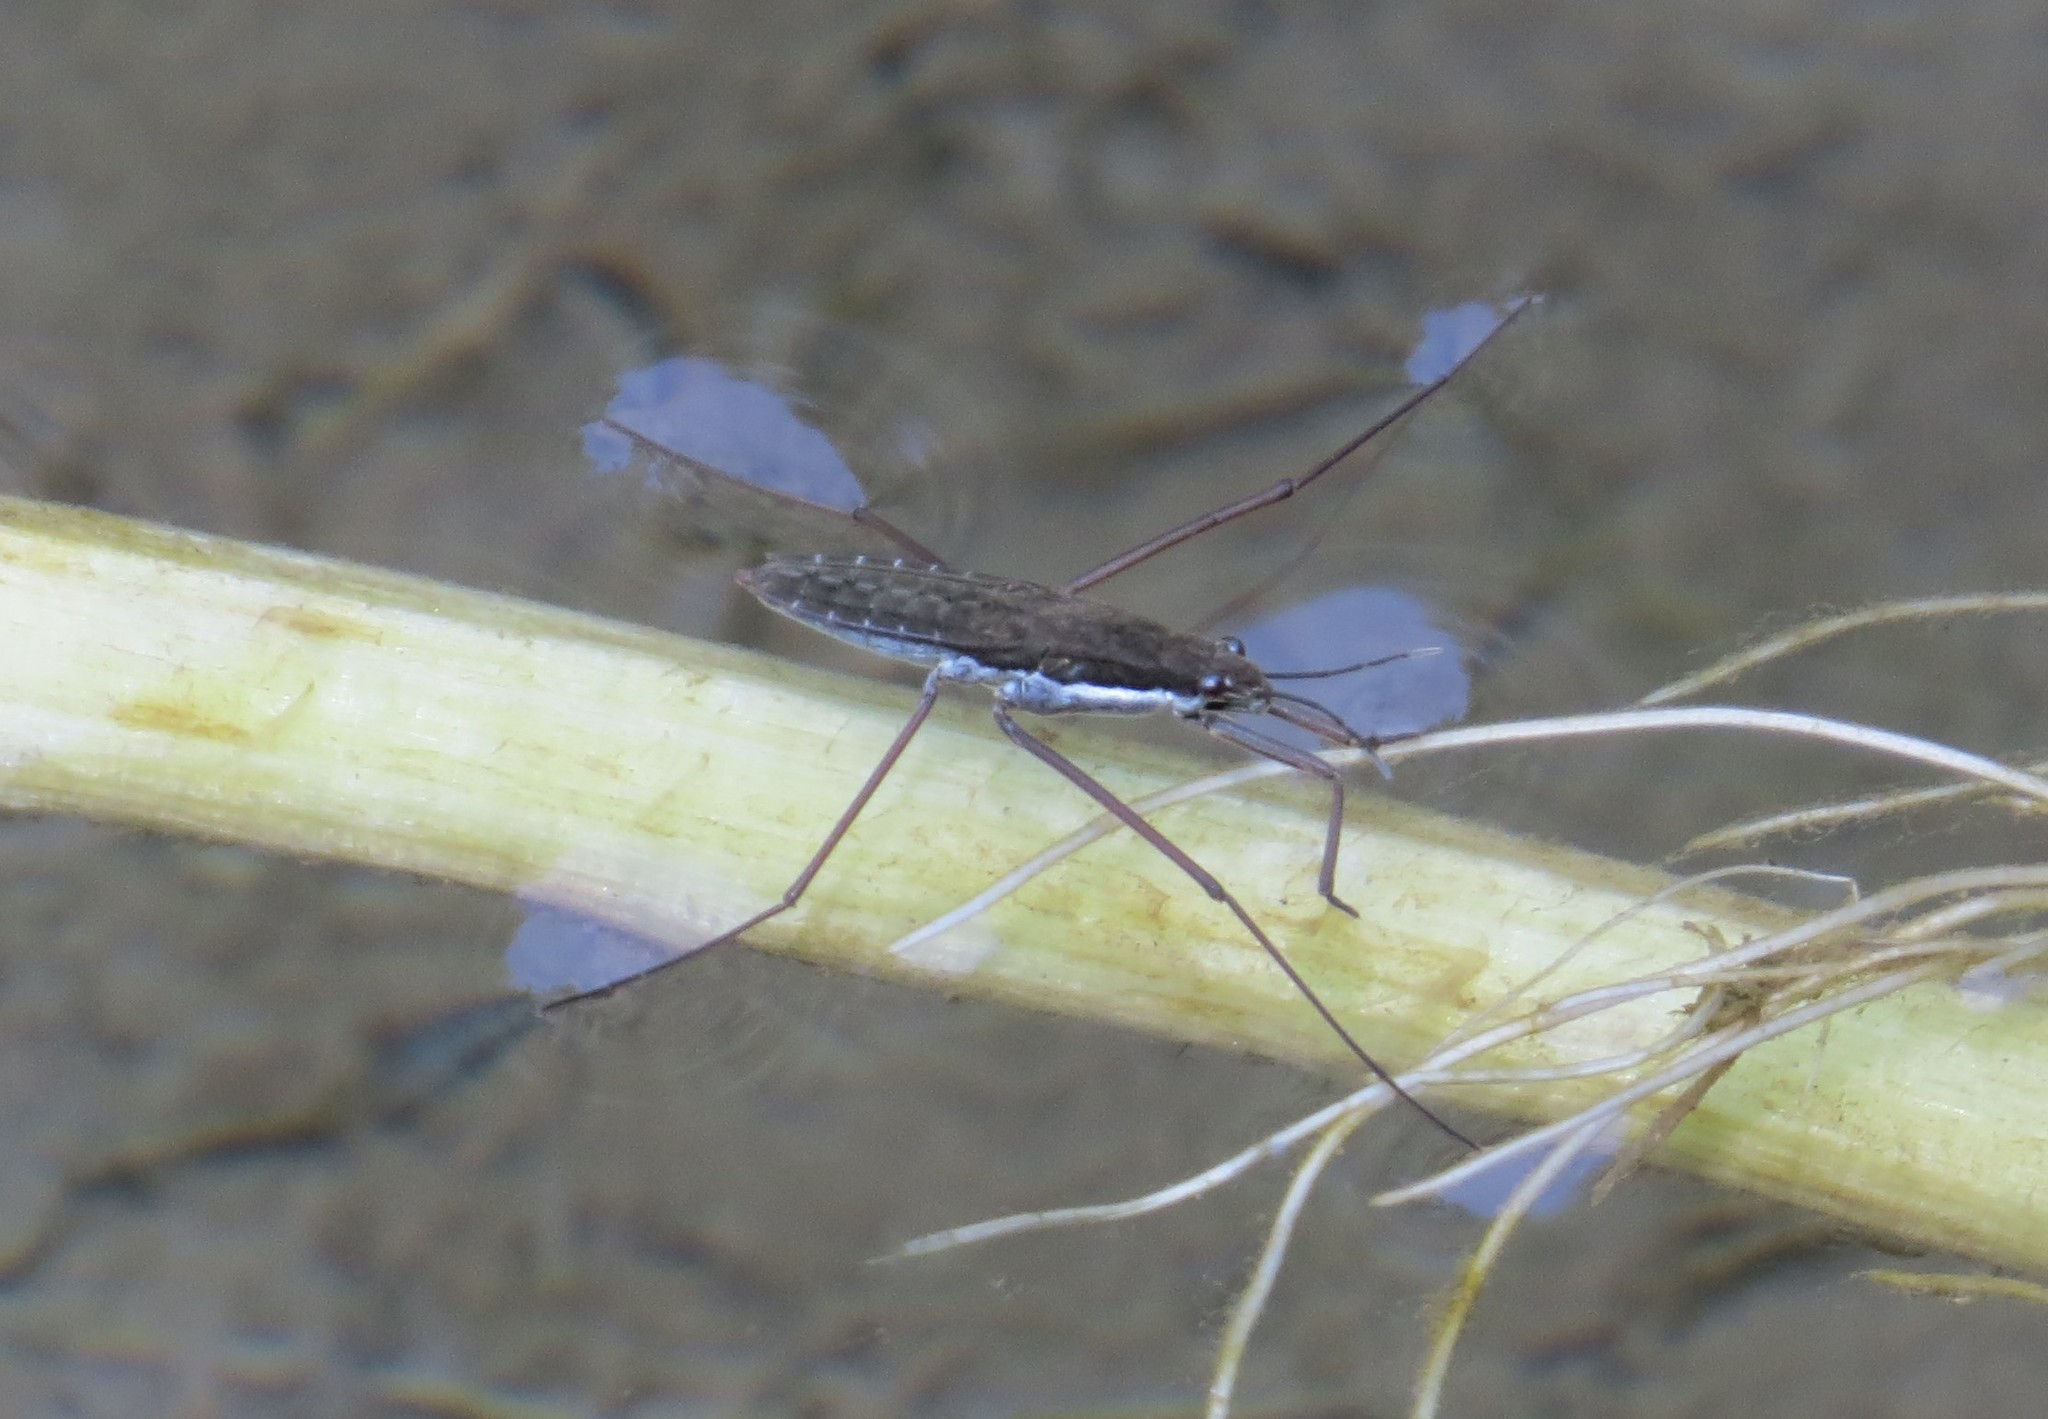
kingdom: Animalia
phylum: Arthropoda
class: Insecta
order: Hemiptera
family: Gerridae
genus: Aquarius
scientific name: Aquarius remigis
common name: Common water strider
